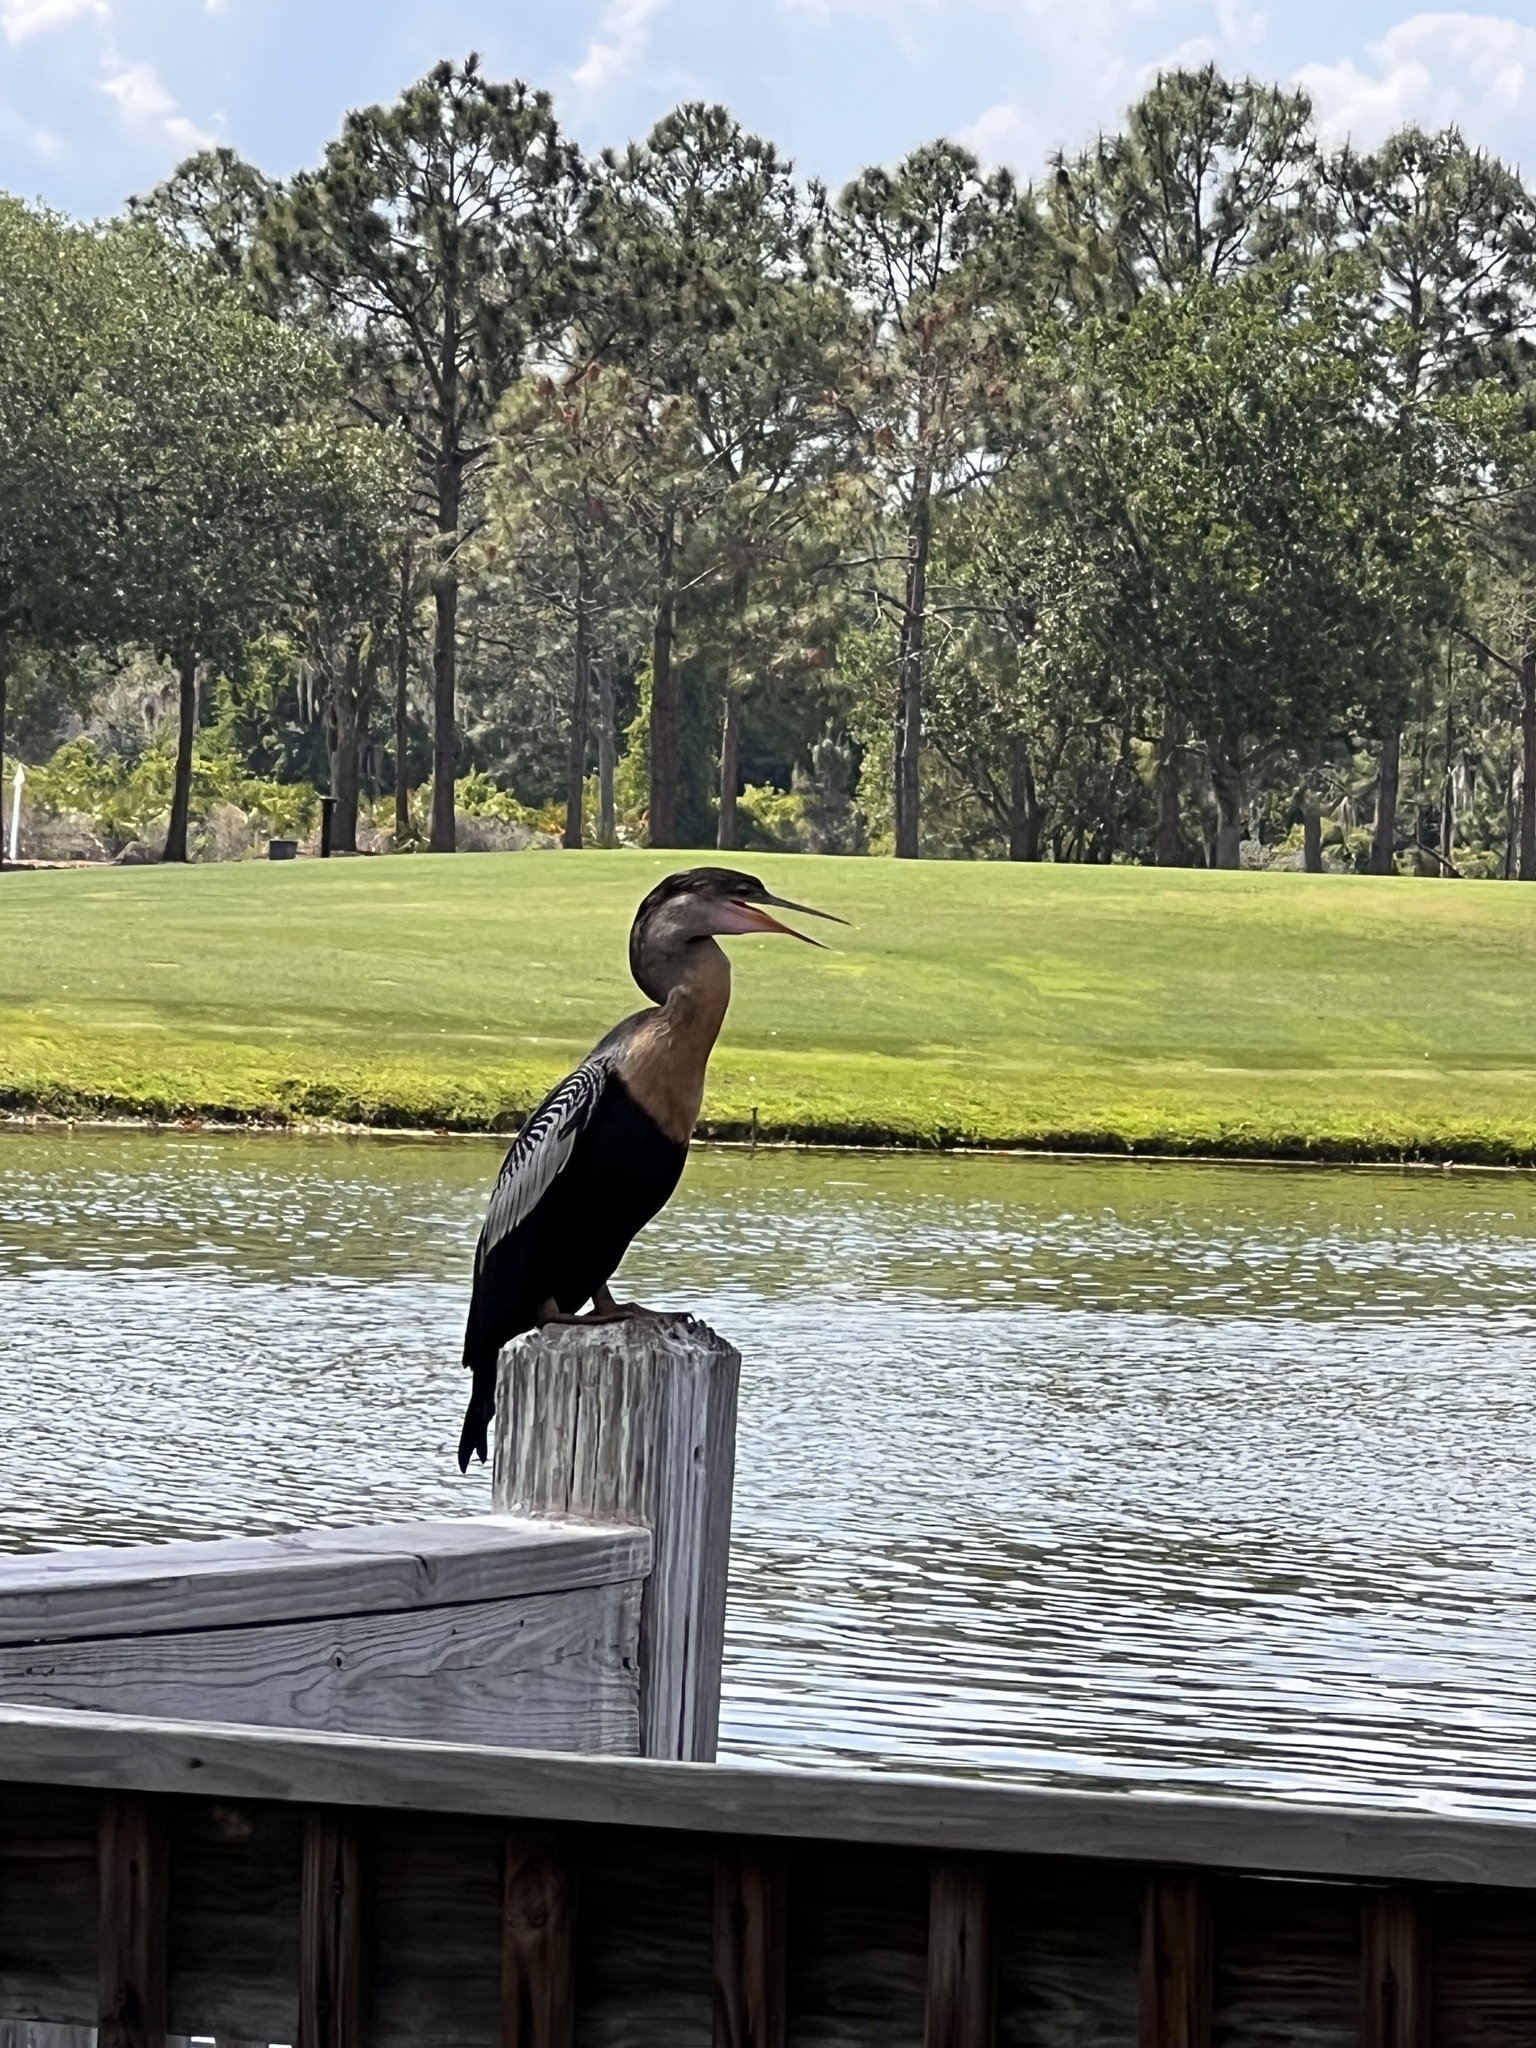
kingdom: Animalia
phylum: Chordata
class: Aves
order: Suliformes
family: Anhingidae
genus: Anhinga
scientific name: Anhinga anhinga
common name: Anhinga
